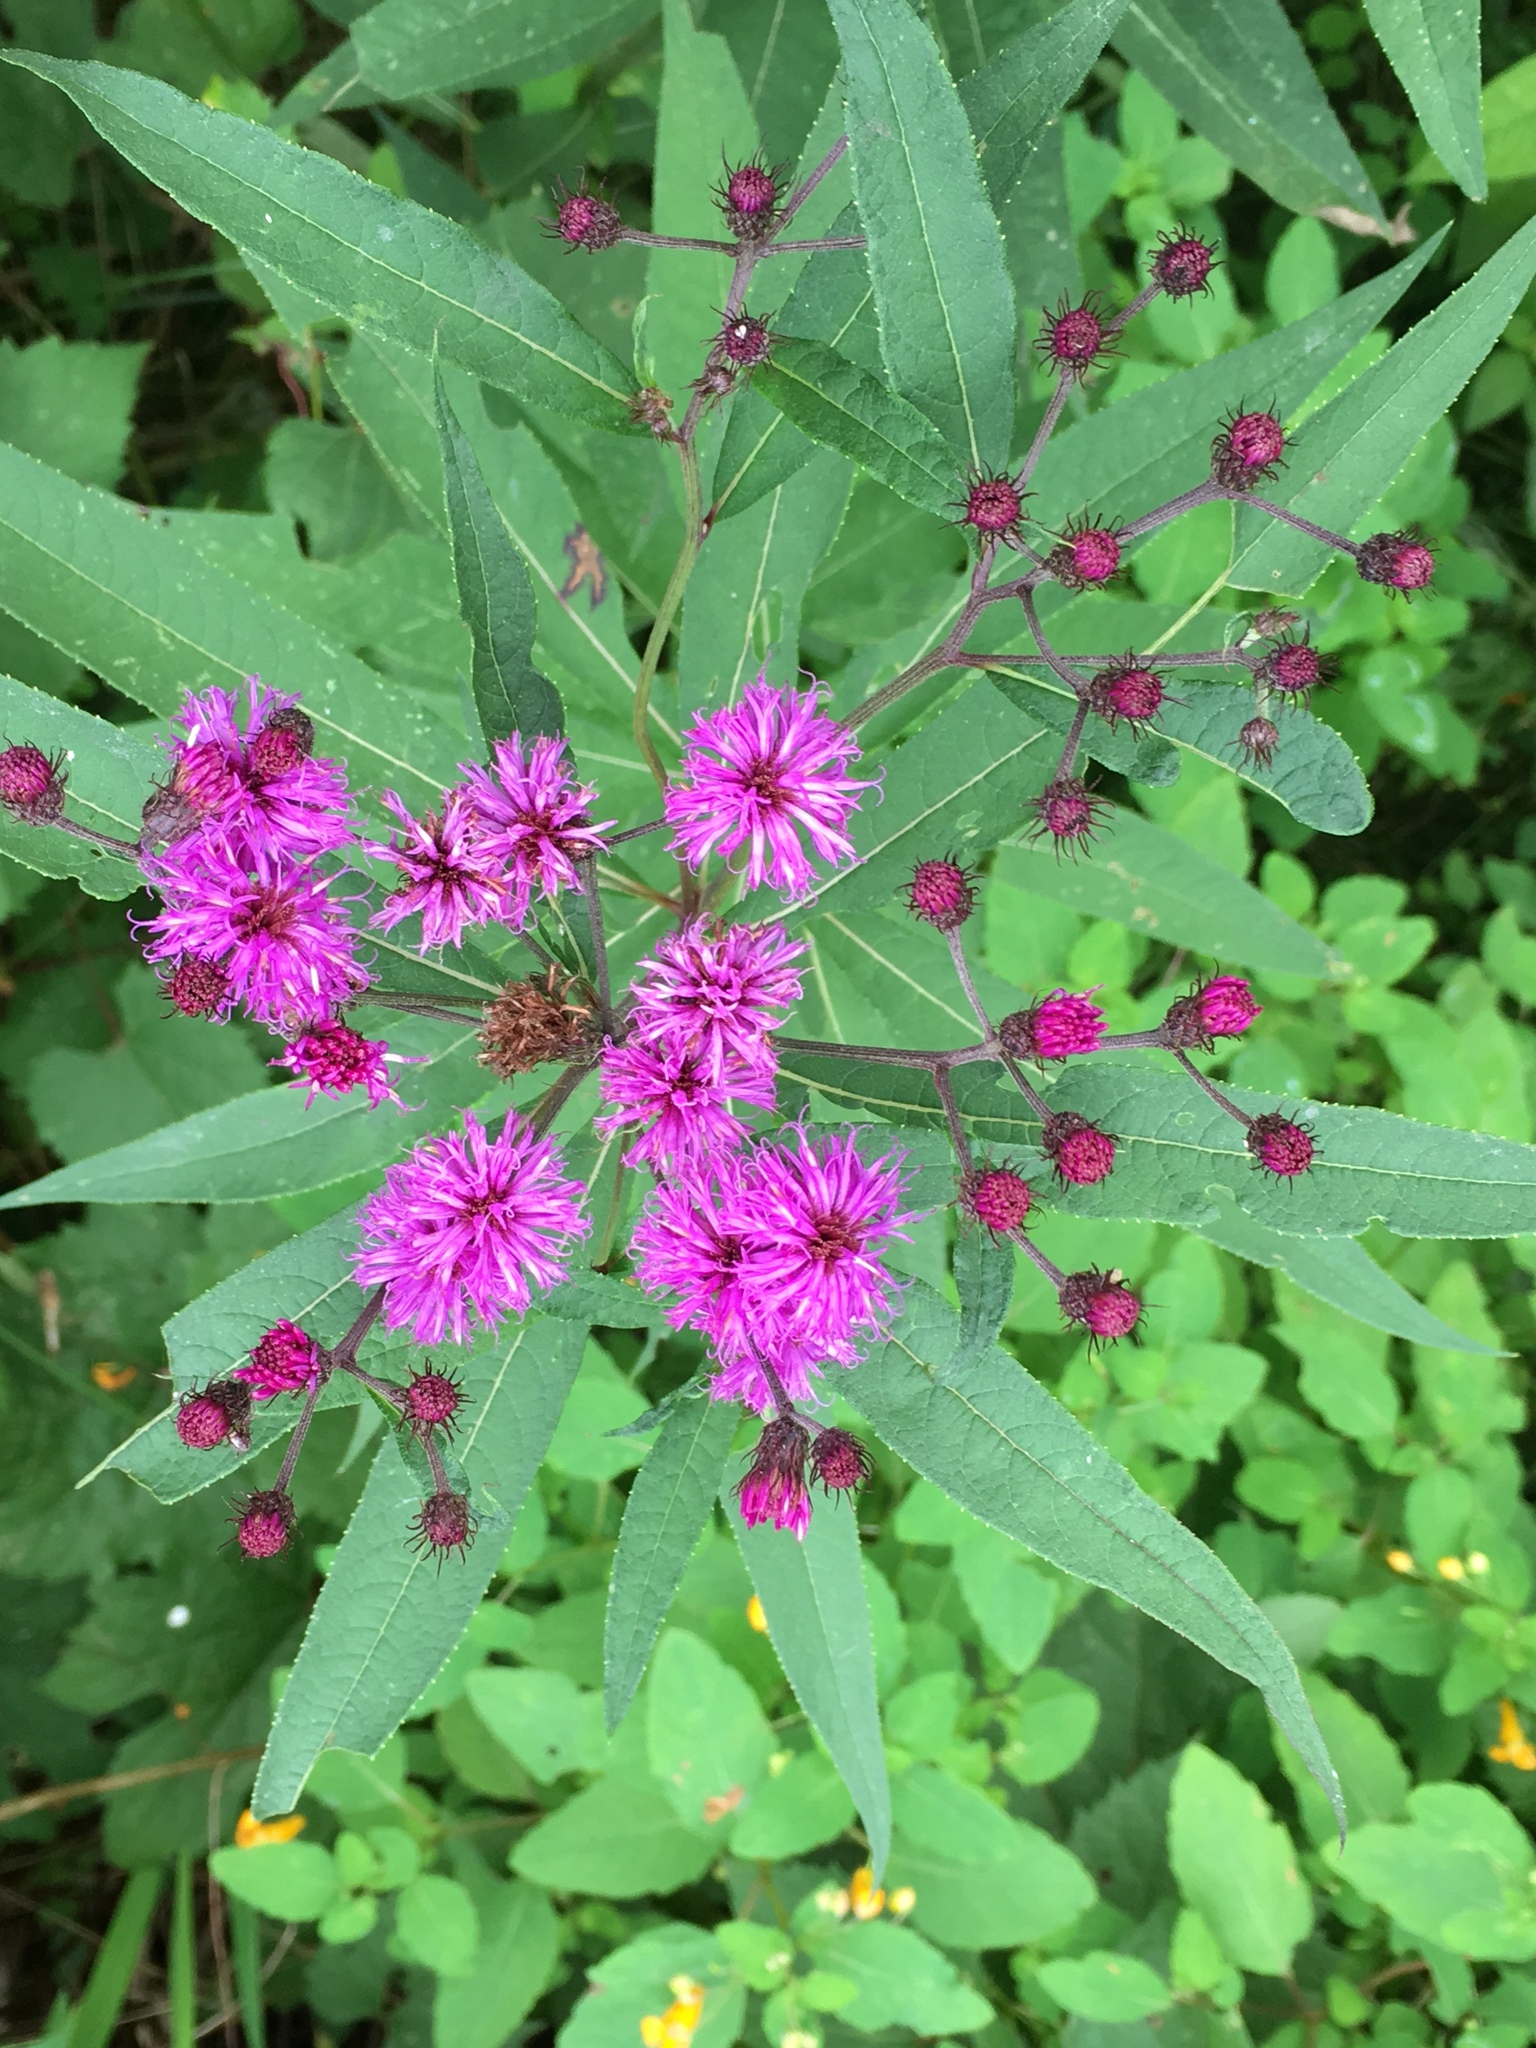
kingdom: Plantae
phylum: Tracheophyta
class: Magnoliopsida
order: Asterales
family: Asteraceae
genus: Vernonia
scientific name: Vernonia noveboracensis
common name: New york ironweed
